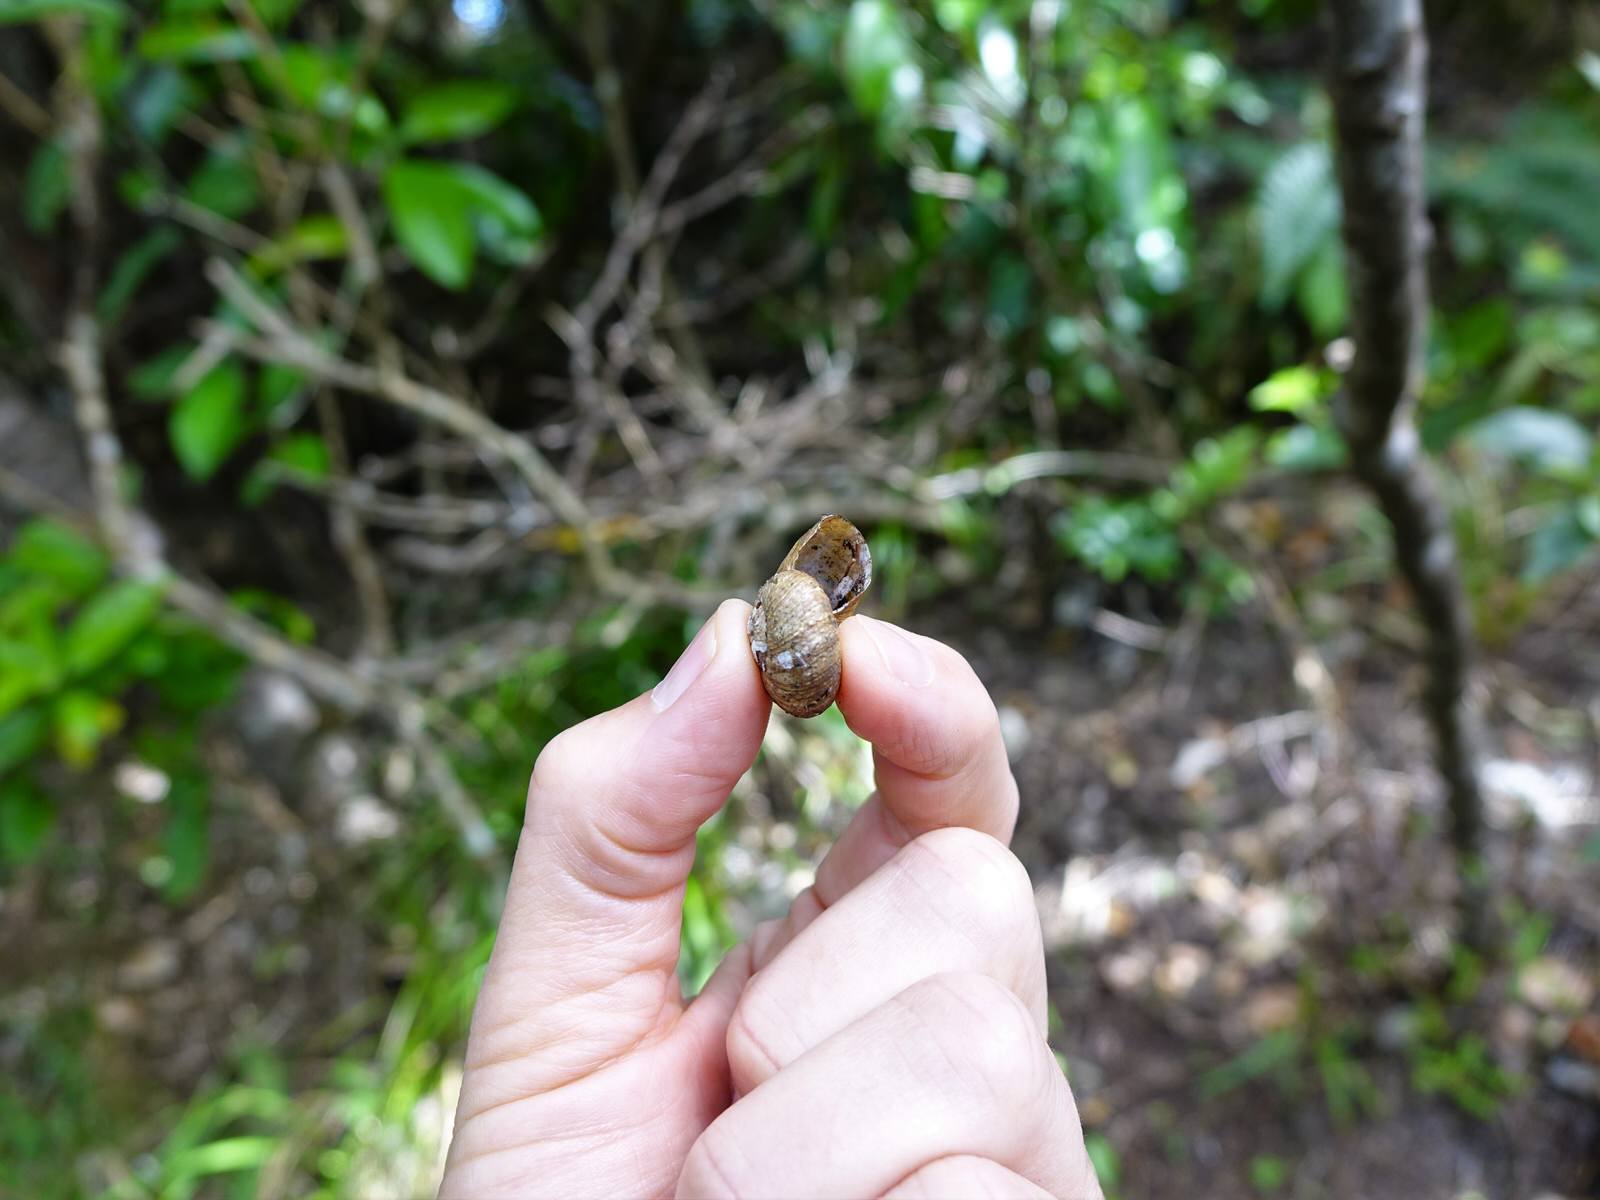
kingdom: Animalia
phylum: Mollusca
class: Gastropoda
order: Stylommatophora
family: Rhytididae
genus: Rhytida
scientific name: Rhytida greenwoodi
